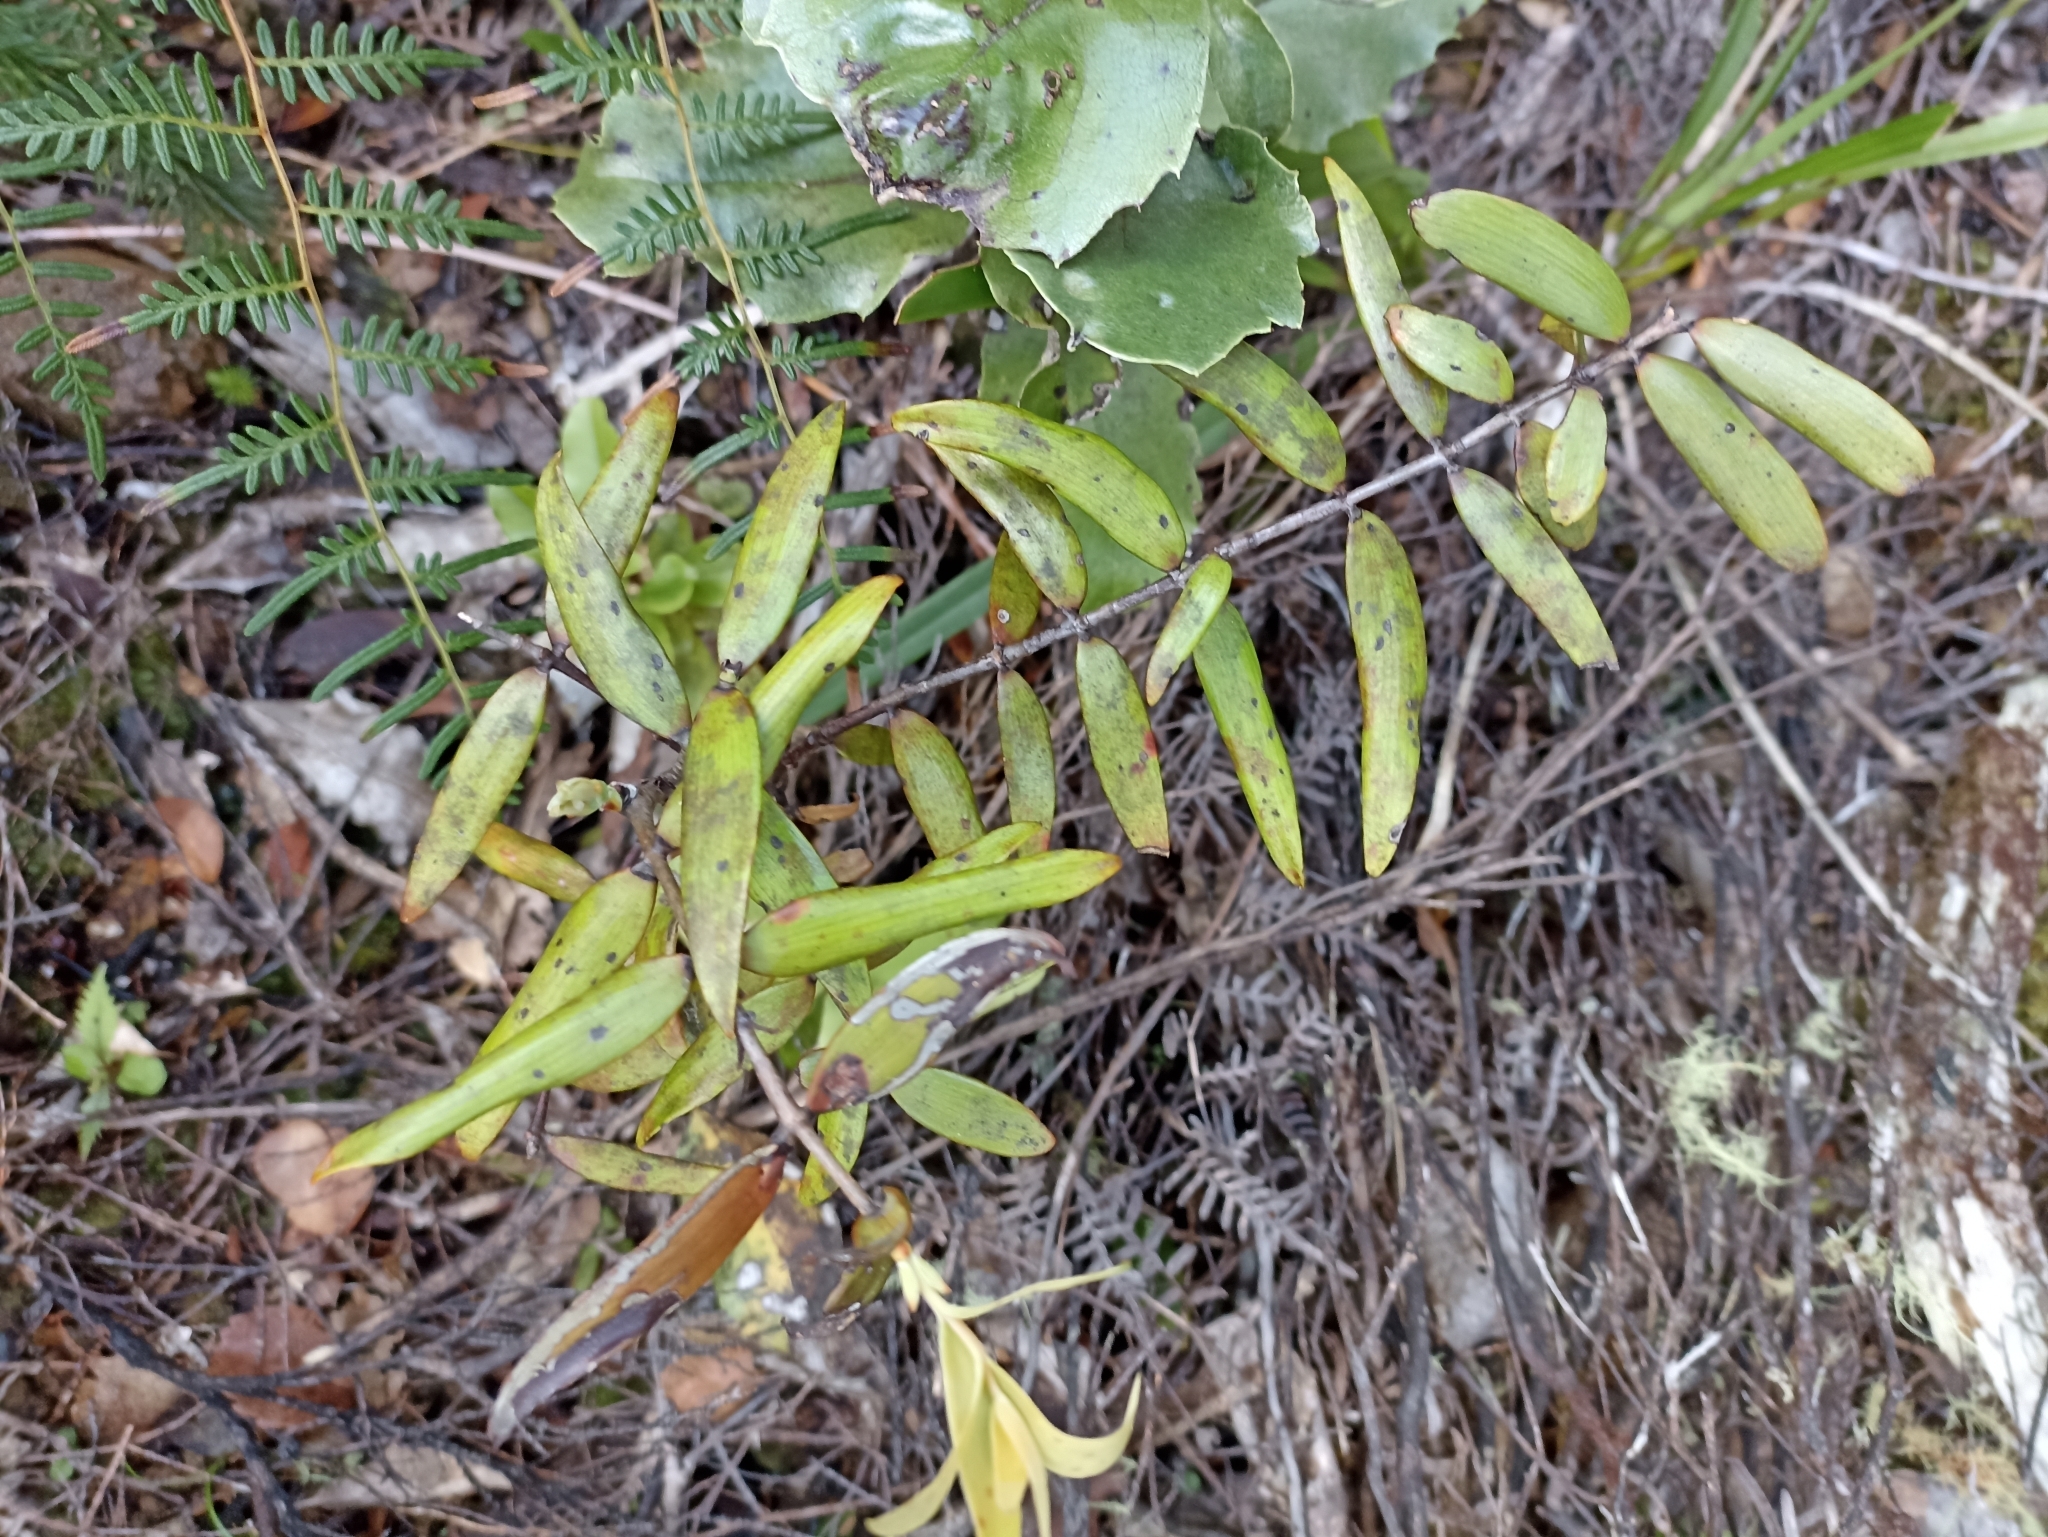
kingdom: Plantae
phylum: Tracheophyta
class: Pinopsida
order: Pinales
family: Araucariaceae
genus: Agathis
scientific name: Agathis australis
